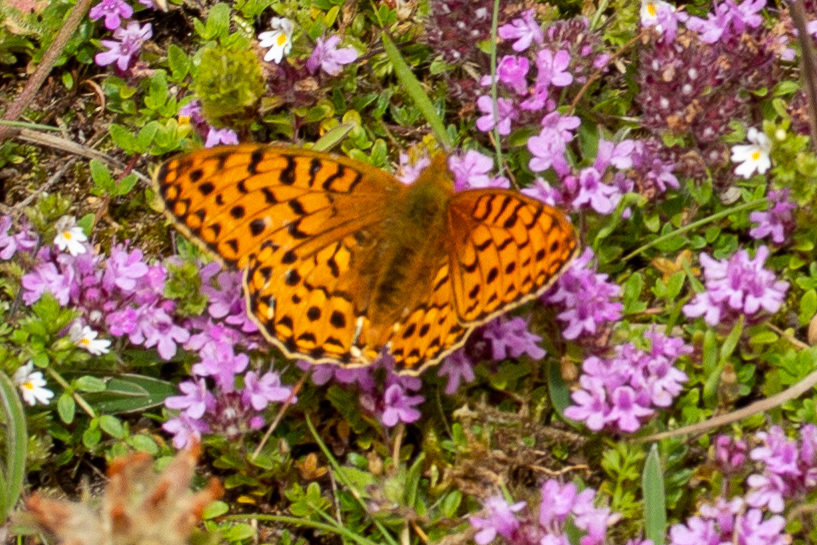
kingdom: Animalia
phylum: Arthropoda
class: Insecta
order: Lepidoptera
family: Nymphalidae
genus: Speyeria
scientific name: Speyeria aglaja
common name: Dark green fritillary
